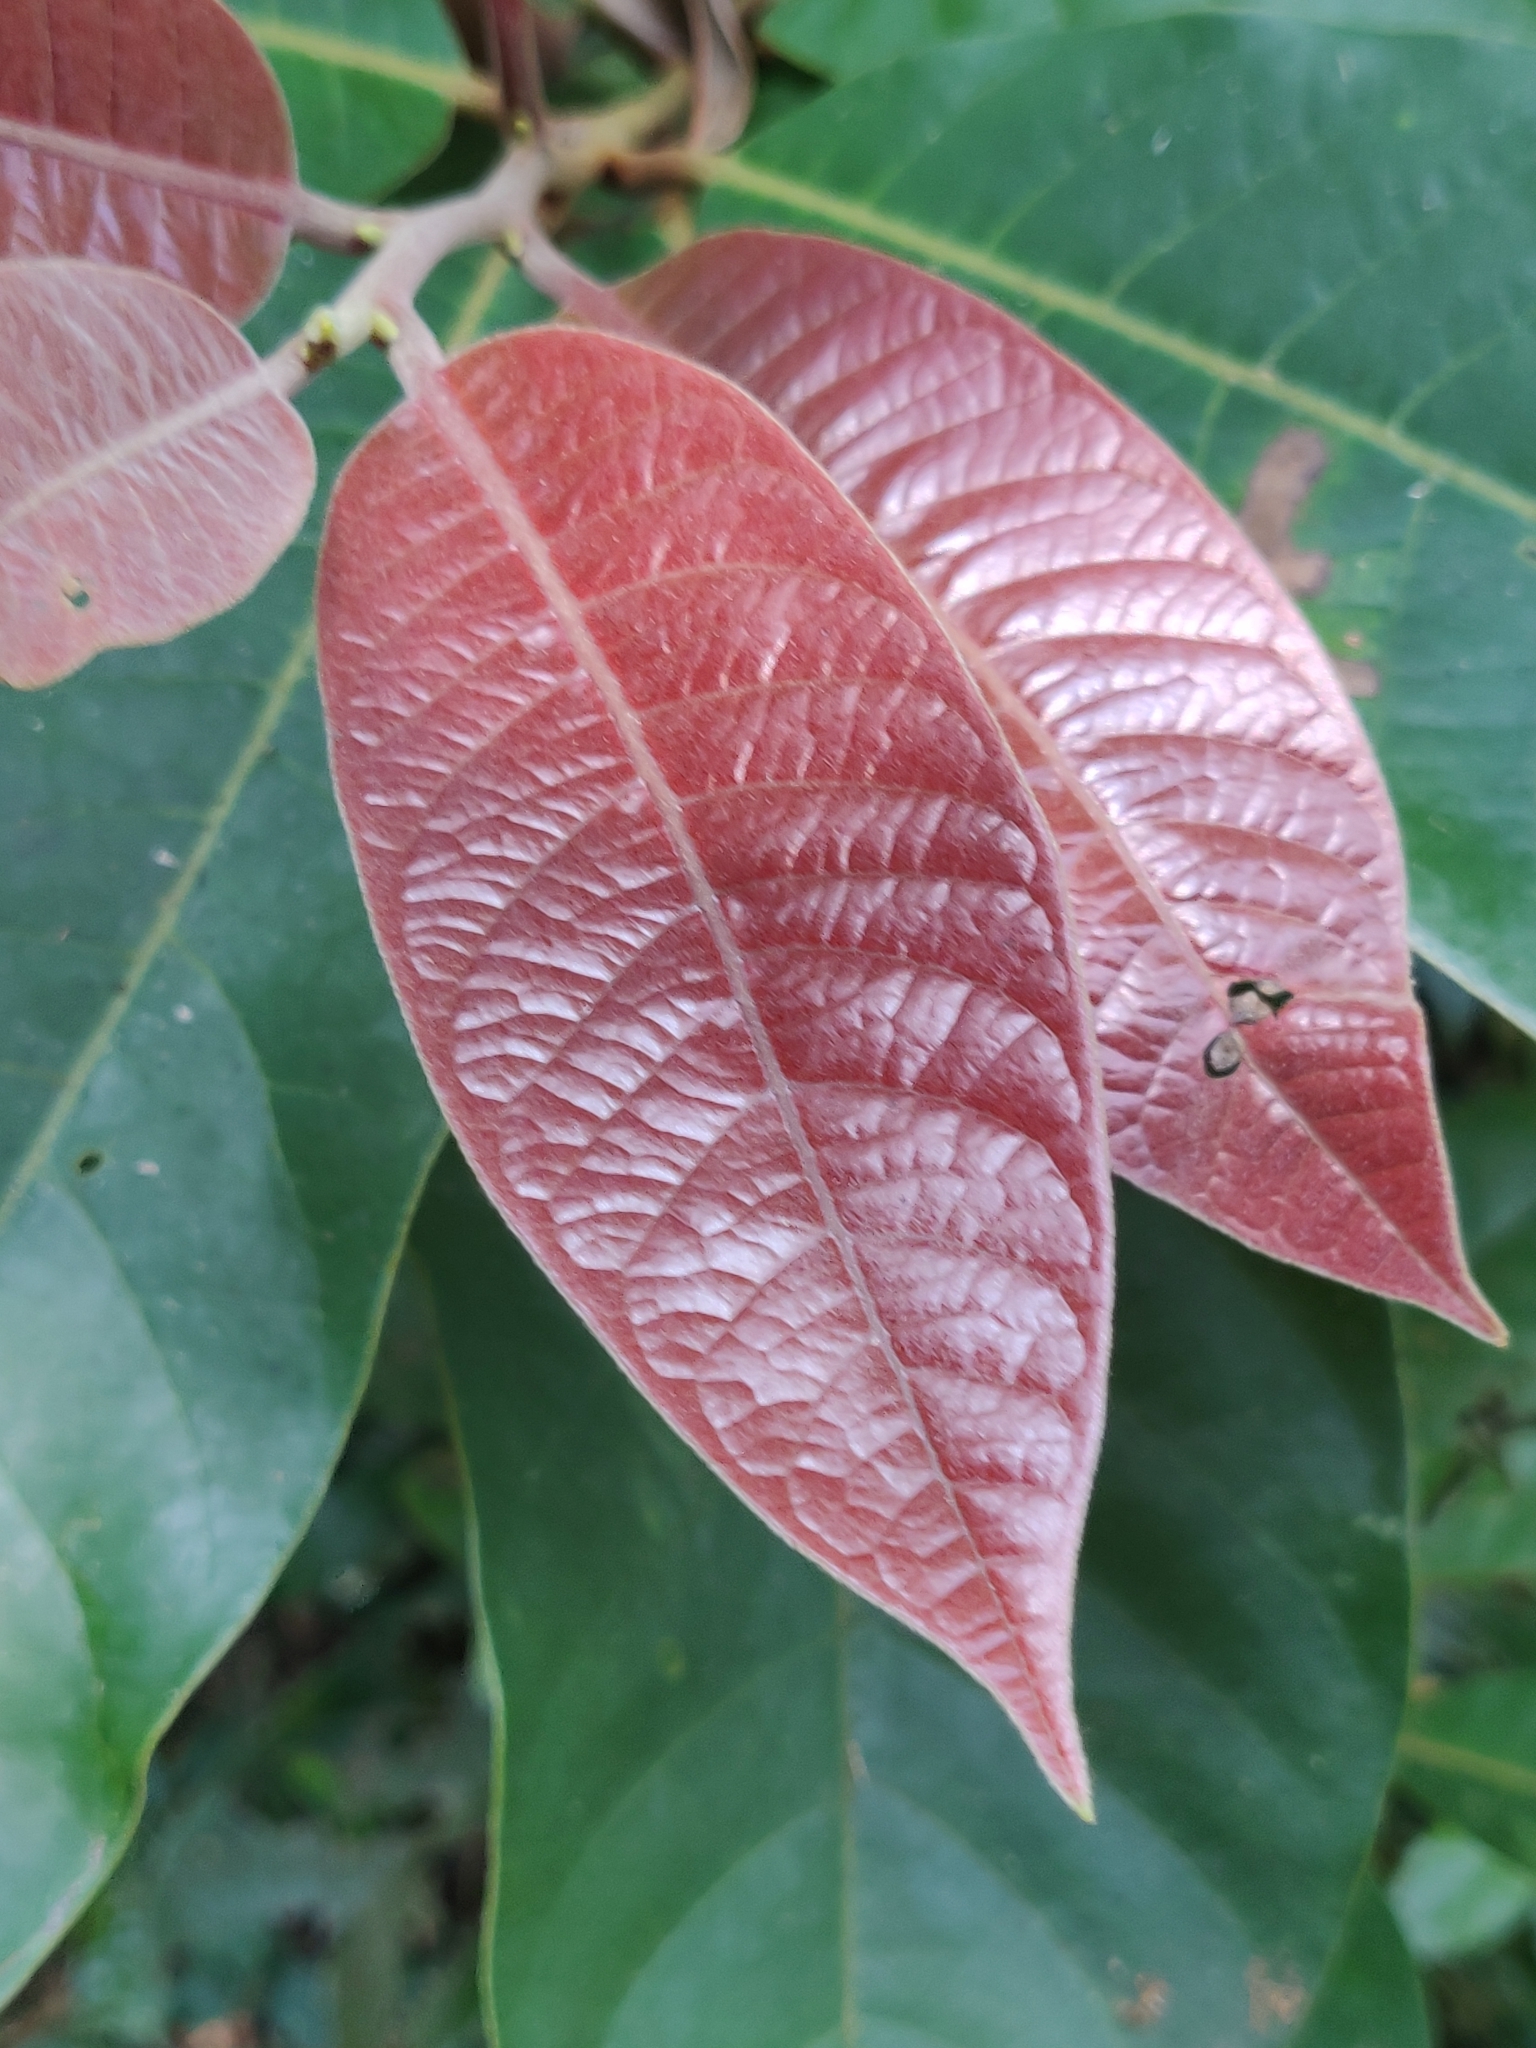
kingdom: Plantae
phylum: Tracheophyta
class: Magnoliopsida
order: Laurales
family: Lauraceae
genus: Litsea
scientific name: Litsea floribunda
